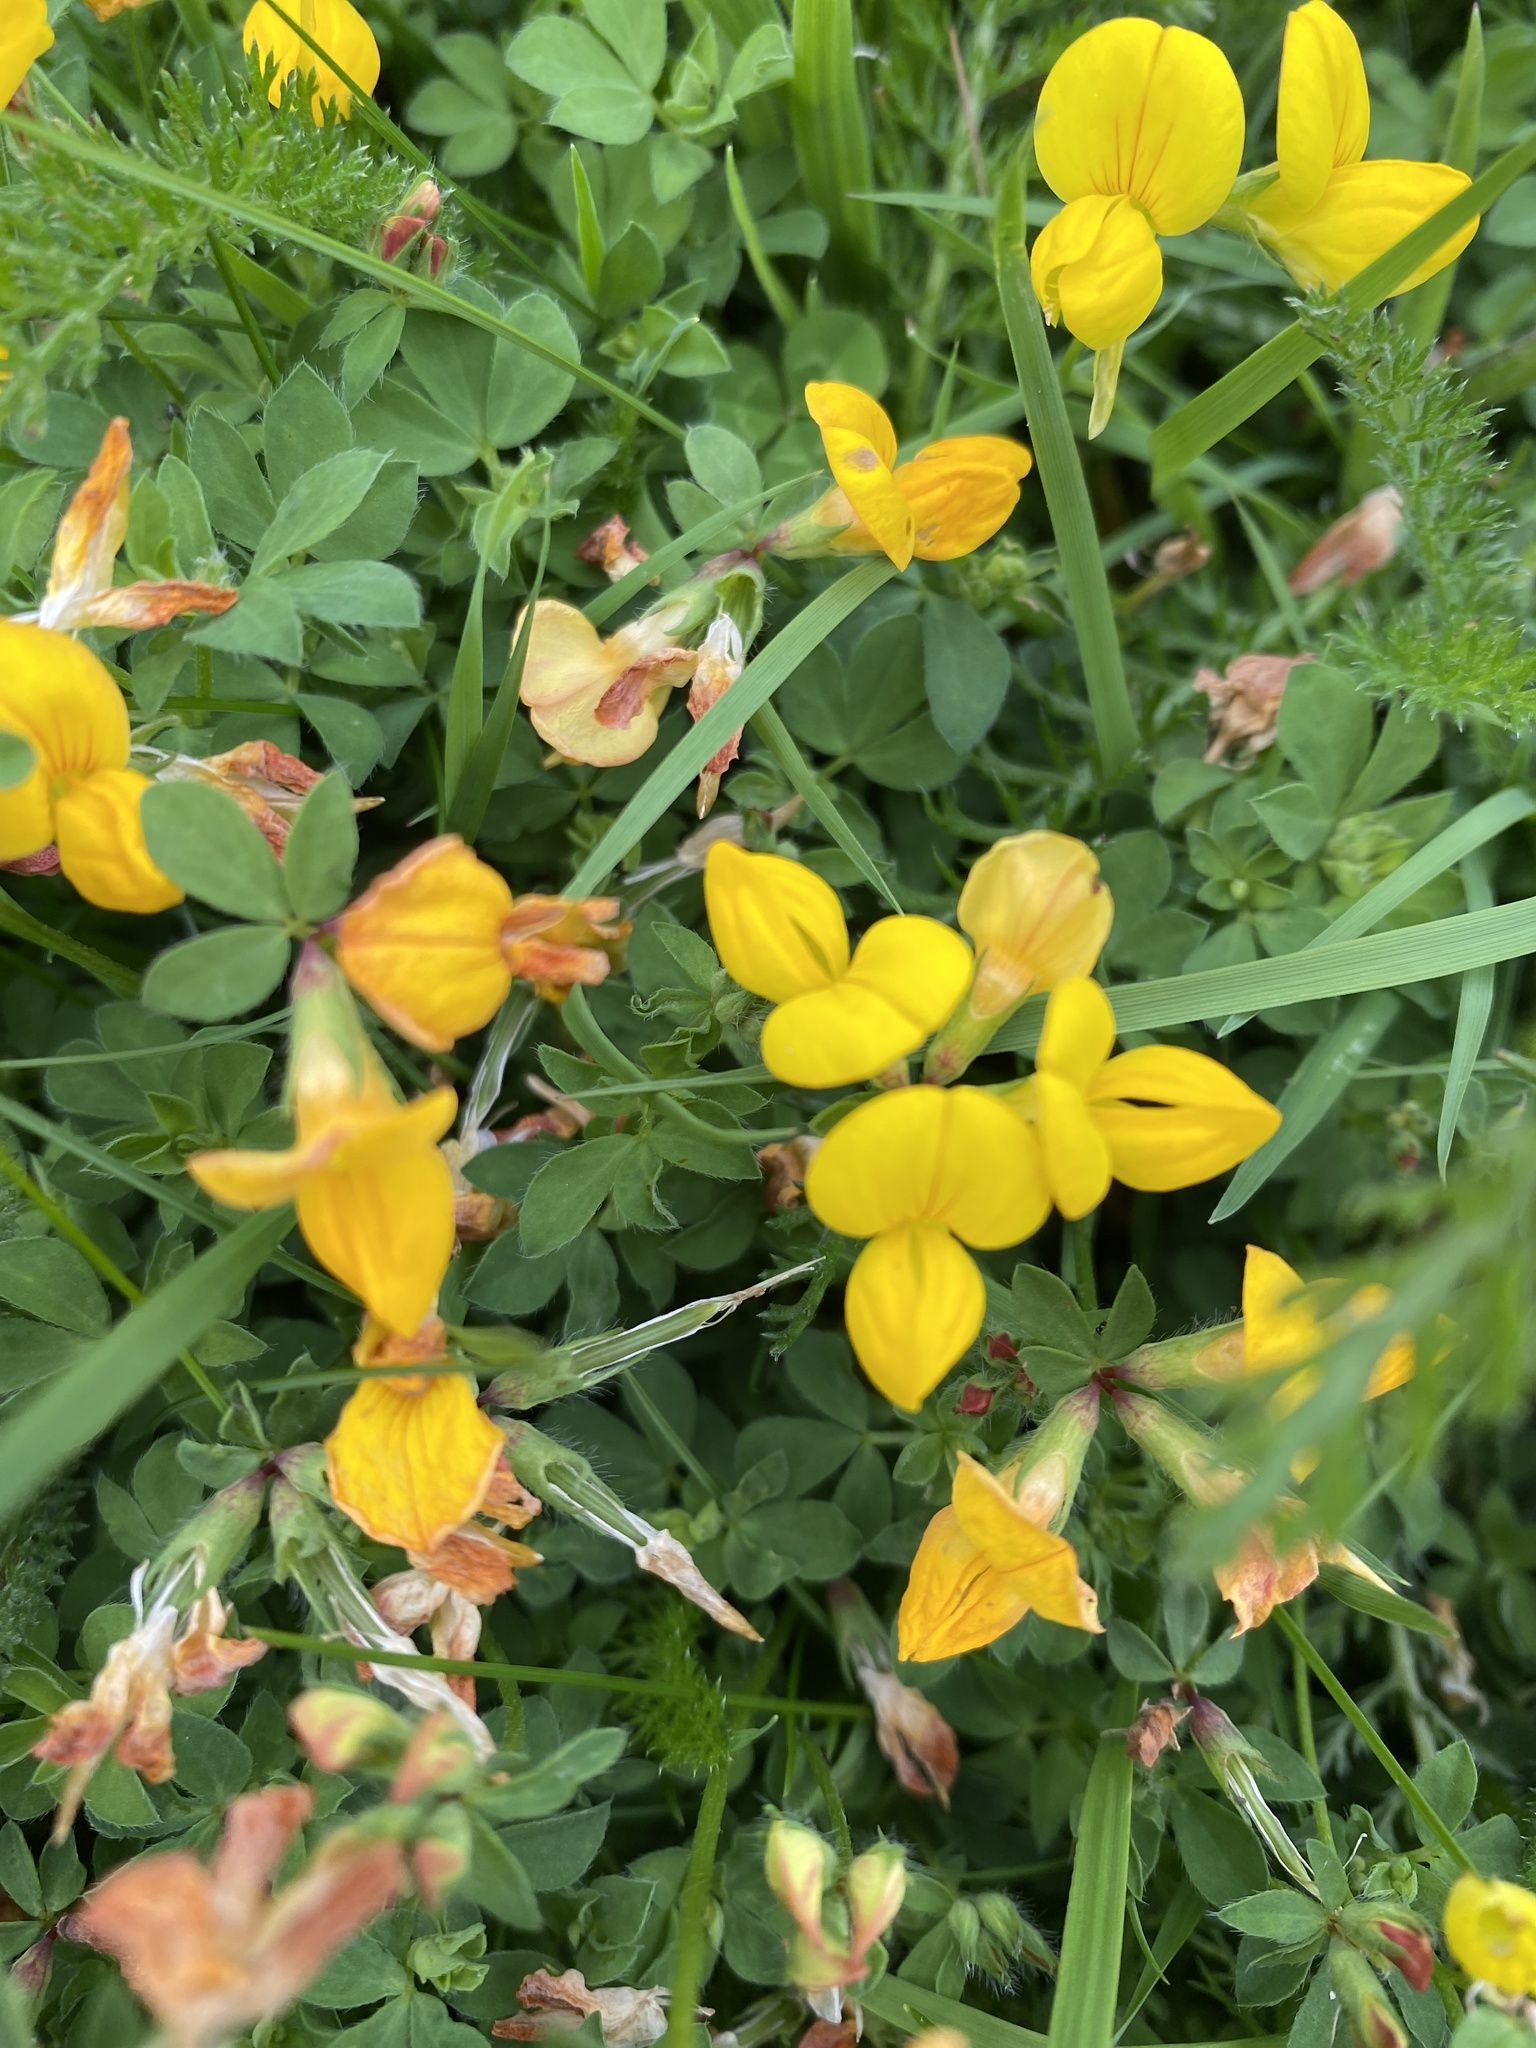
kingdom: Plantae
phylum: Tracheophyta
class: Magnoliopsida
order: Fabales
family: Fabaceae
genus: Lotus
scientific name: Lotus corniculatus
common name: Common bird's-foot-trefoil
